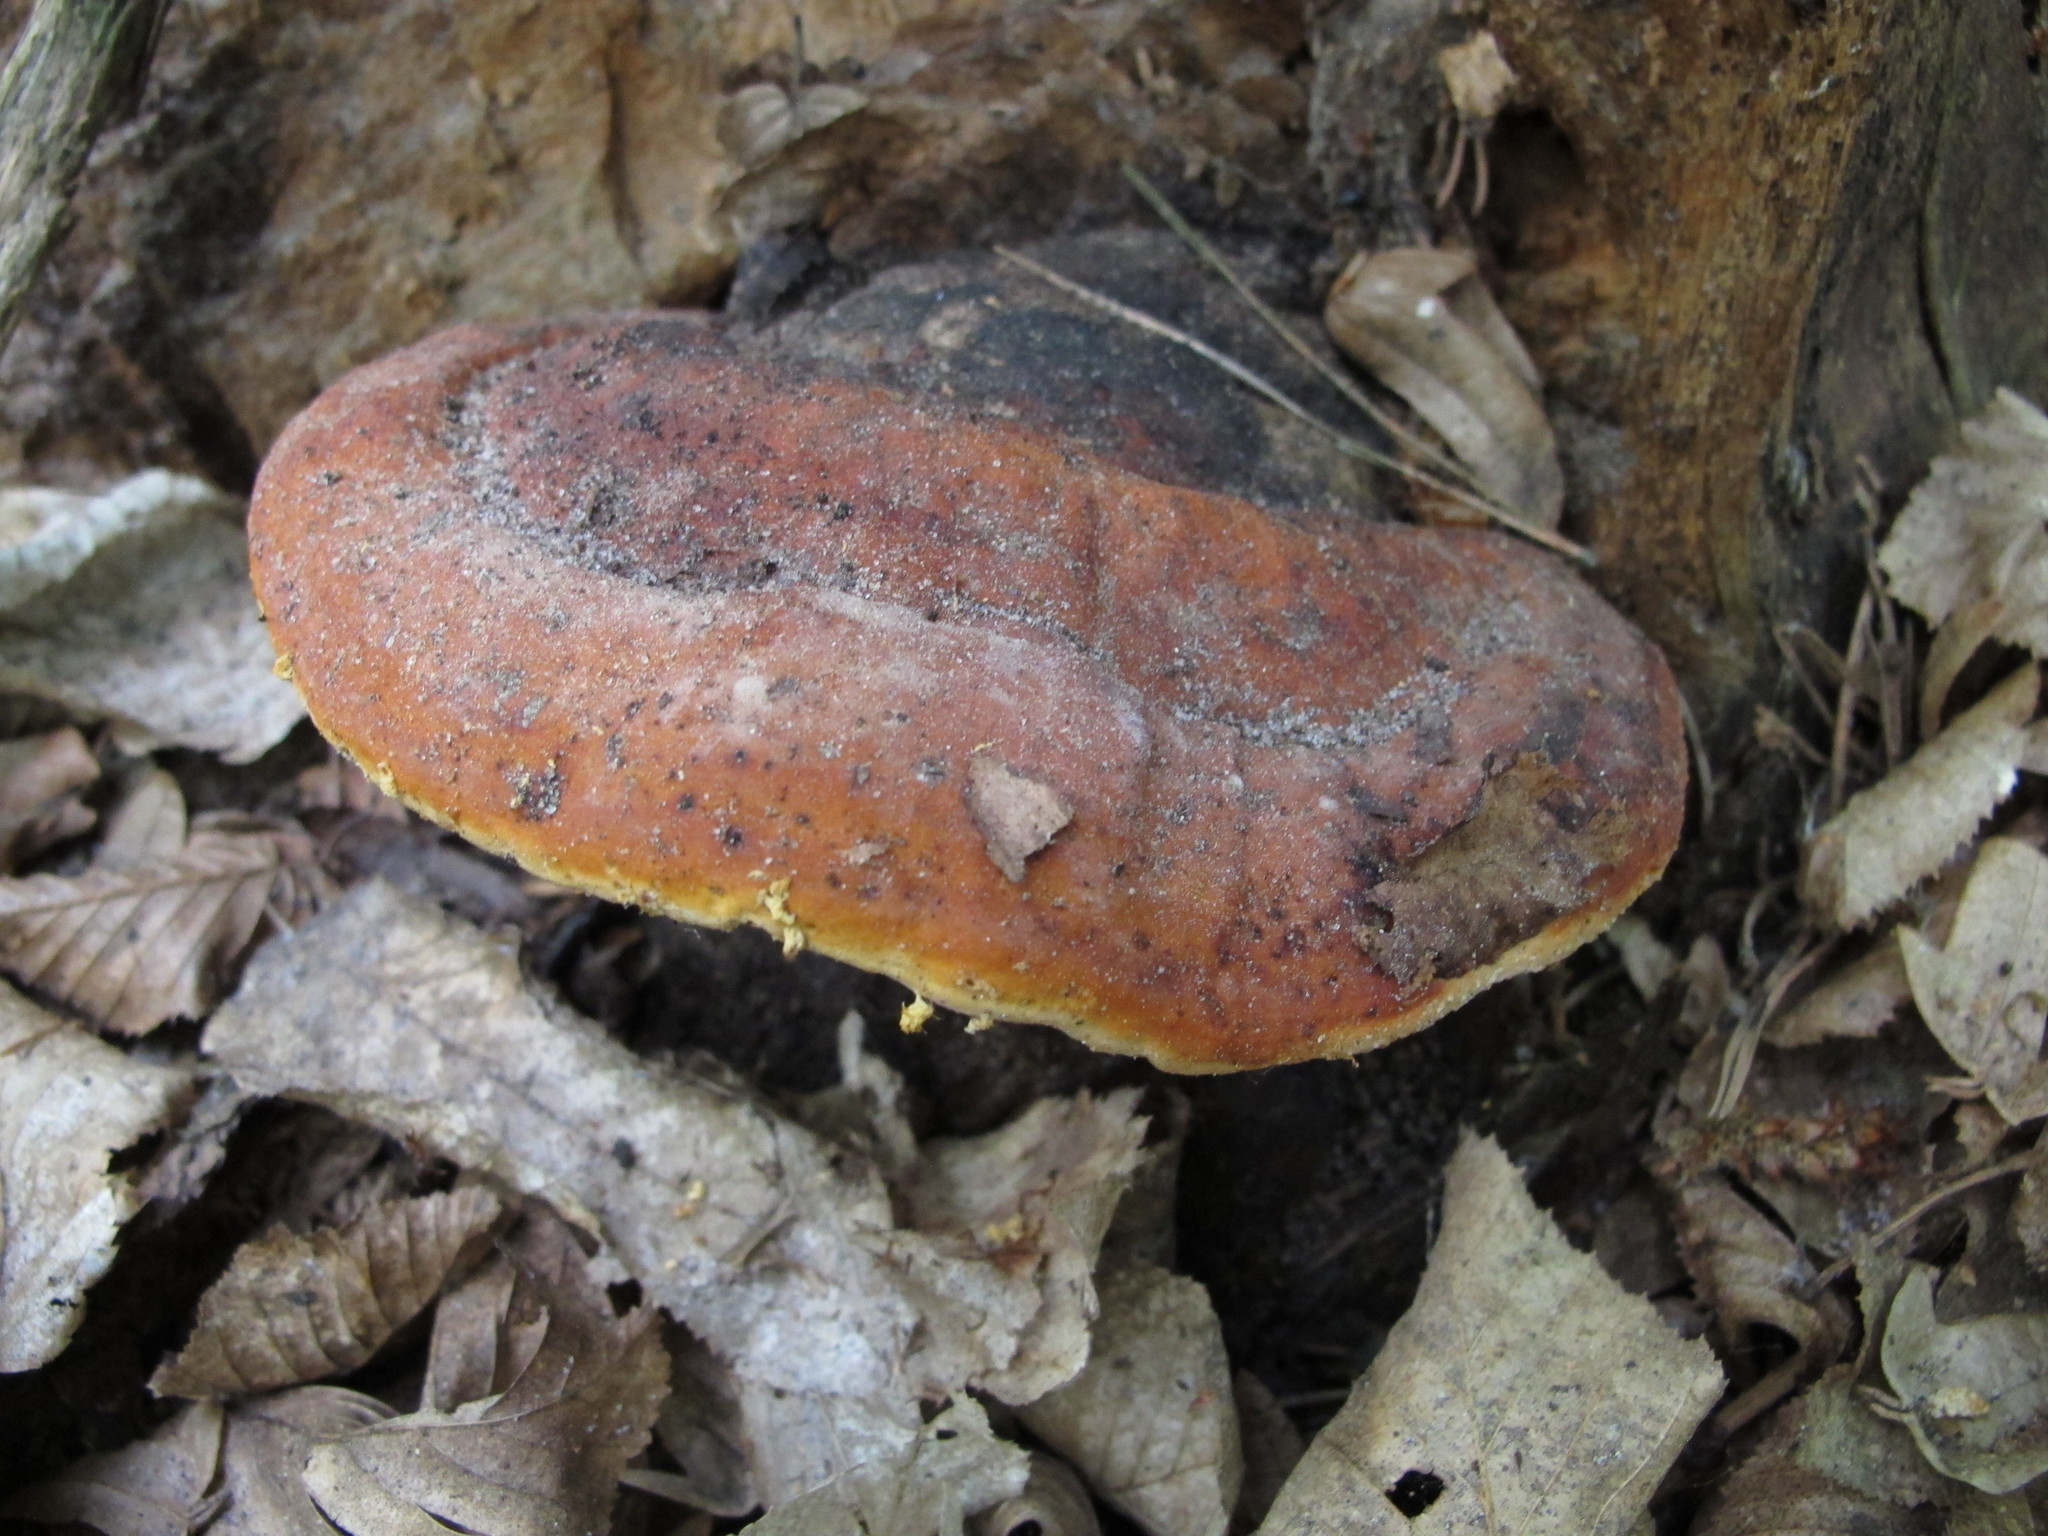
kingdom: Fungi
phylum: Basidiomycota
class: Agaricomycetes
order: Polyporales
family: Fomitopsidaceae
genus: Fomitopsis
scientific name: Fomitopsis pinicola
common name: Red-belted bracket
